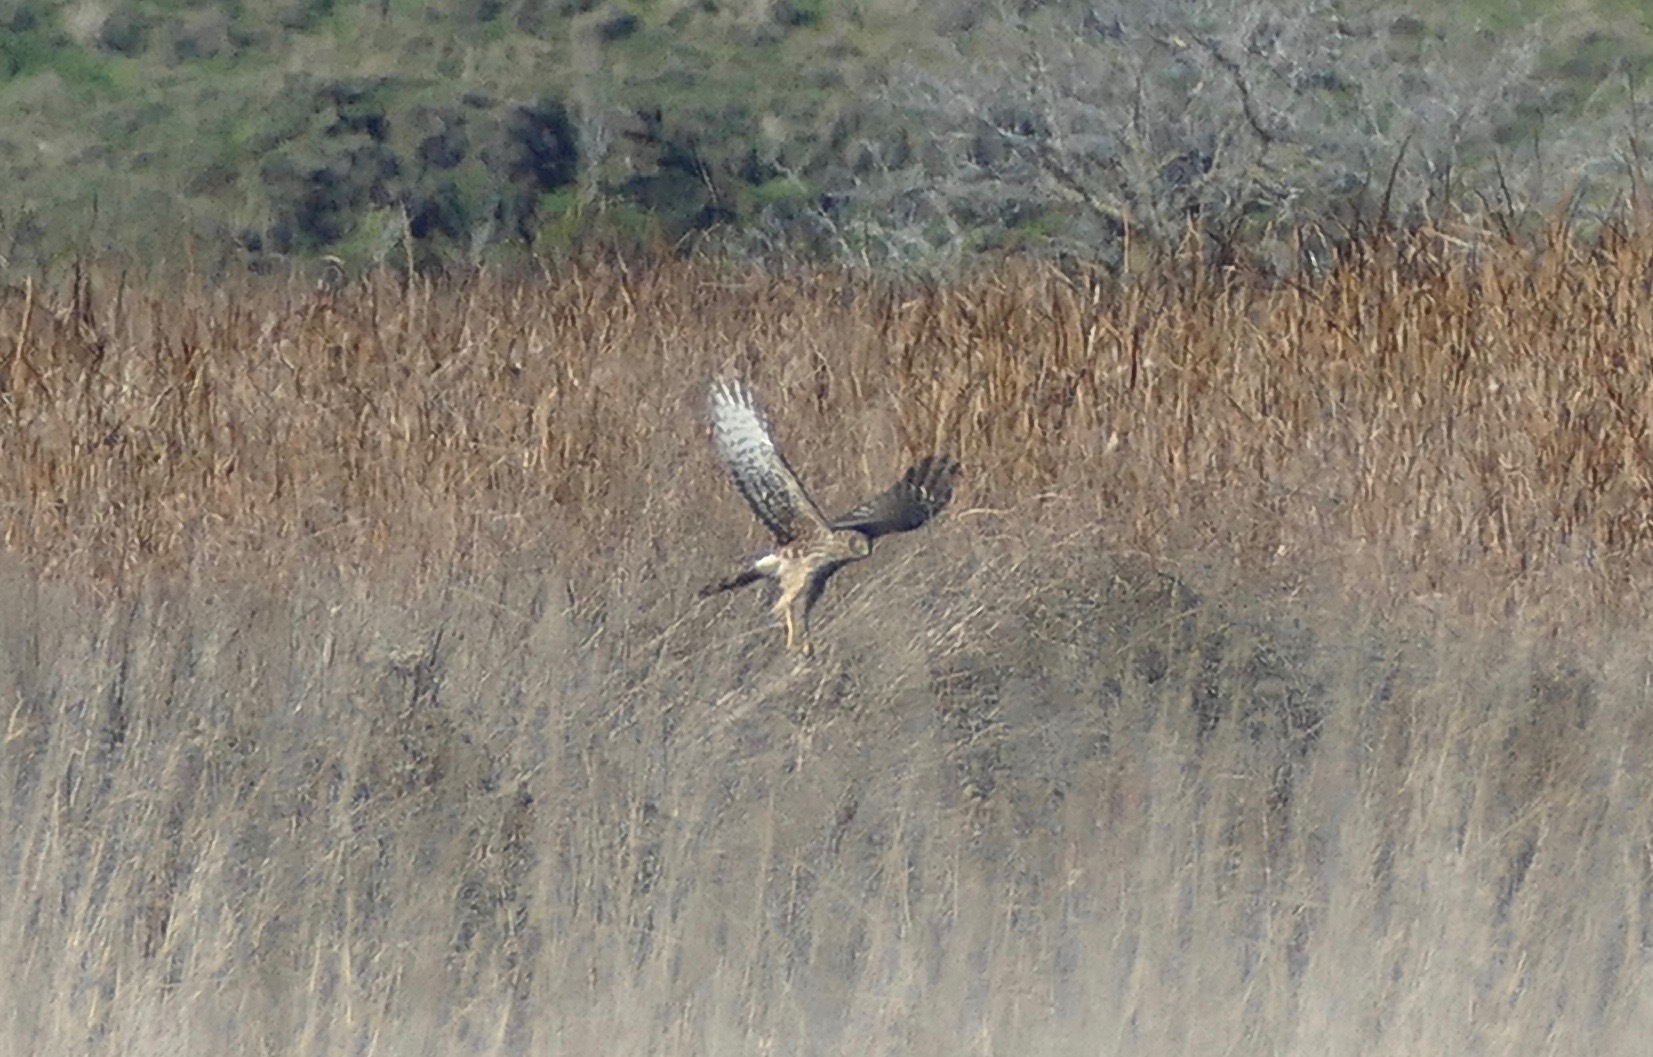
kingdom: Animalia
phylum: Chordata
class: Aves
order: Accipitriformes
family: Accipitridae
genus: Circus
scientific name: Circus cyaneus
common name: Hen harrier
